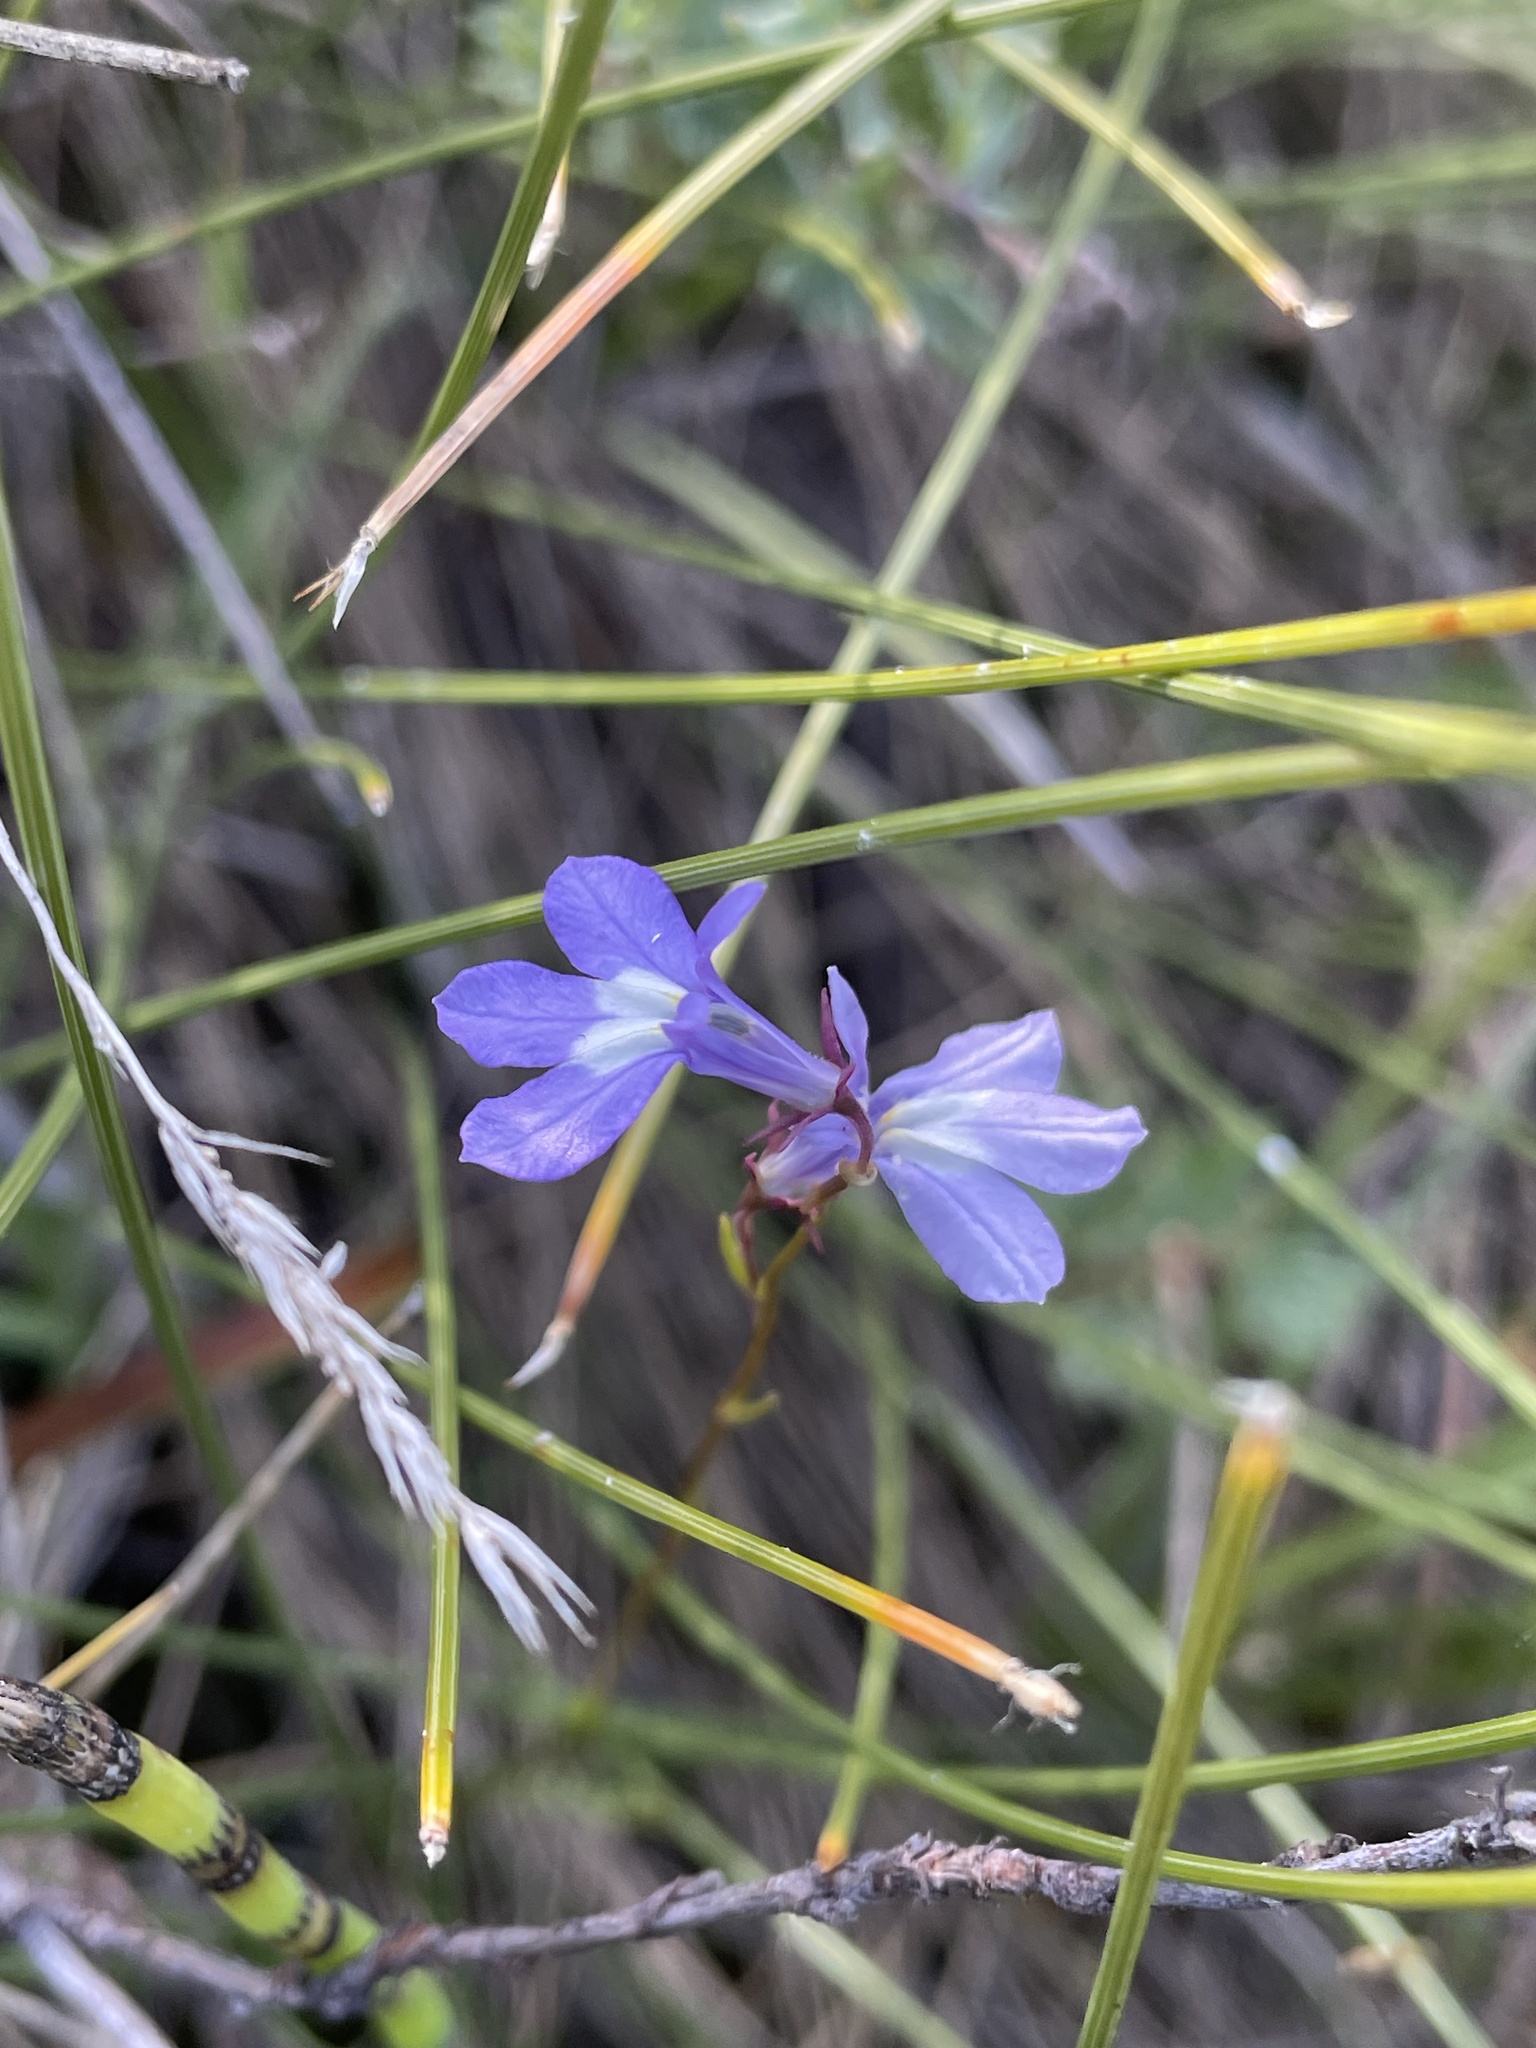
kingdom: Plantae
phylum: Tracheophyta
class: Magnoliopsida
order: Asterales
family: Campanulaceae
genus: Lobelia
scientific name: Lobelia kalmii
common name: Kalm's lobelia
